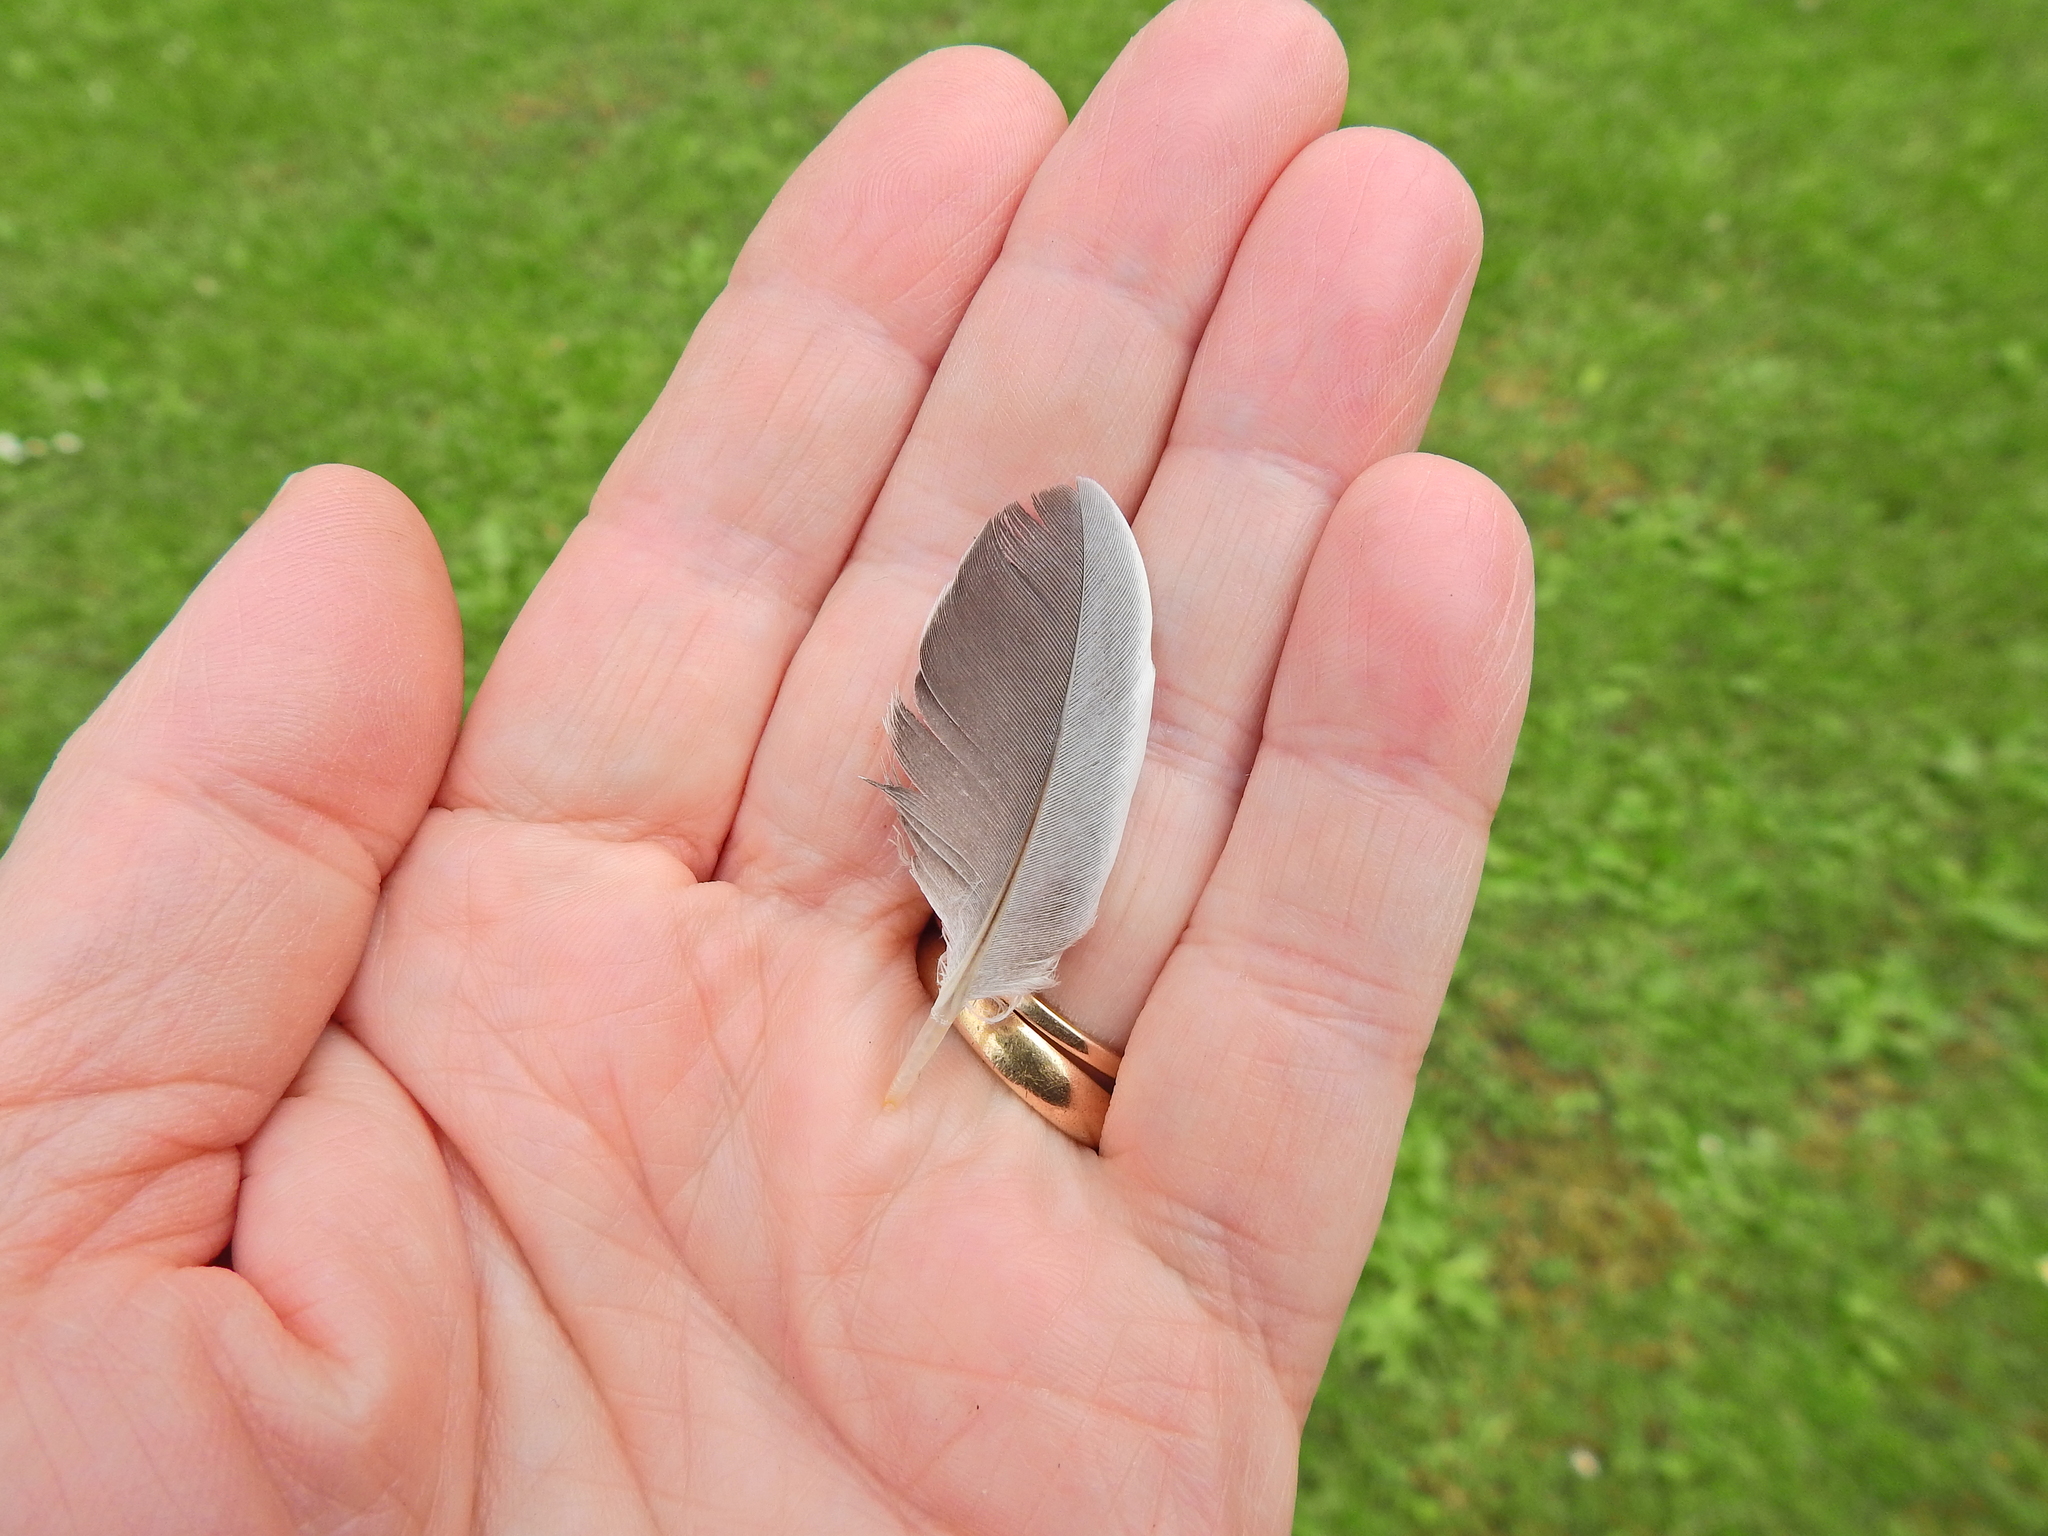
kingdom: Animalia
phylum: Chordata
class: Aves
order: Columbiformes
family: Columbidae
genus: Columba
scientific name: Columba palumbus
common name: Common wood pigeon
